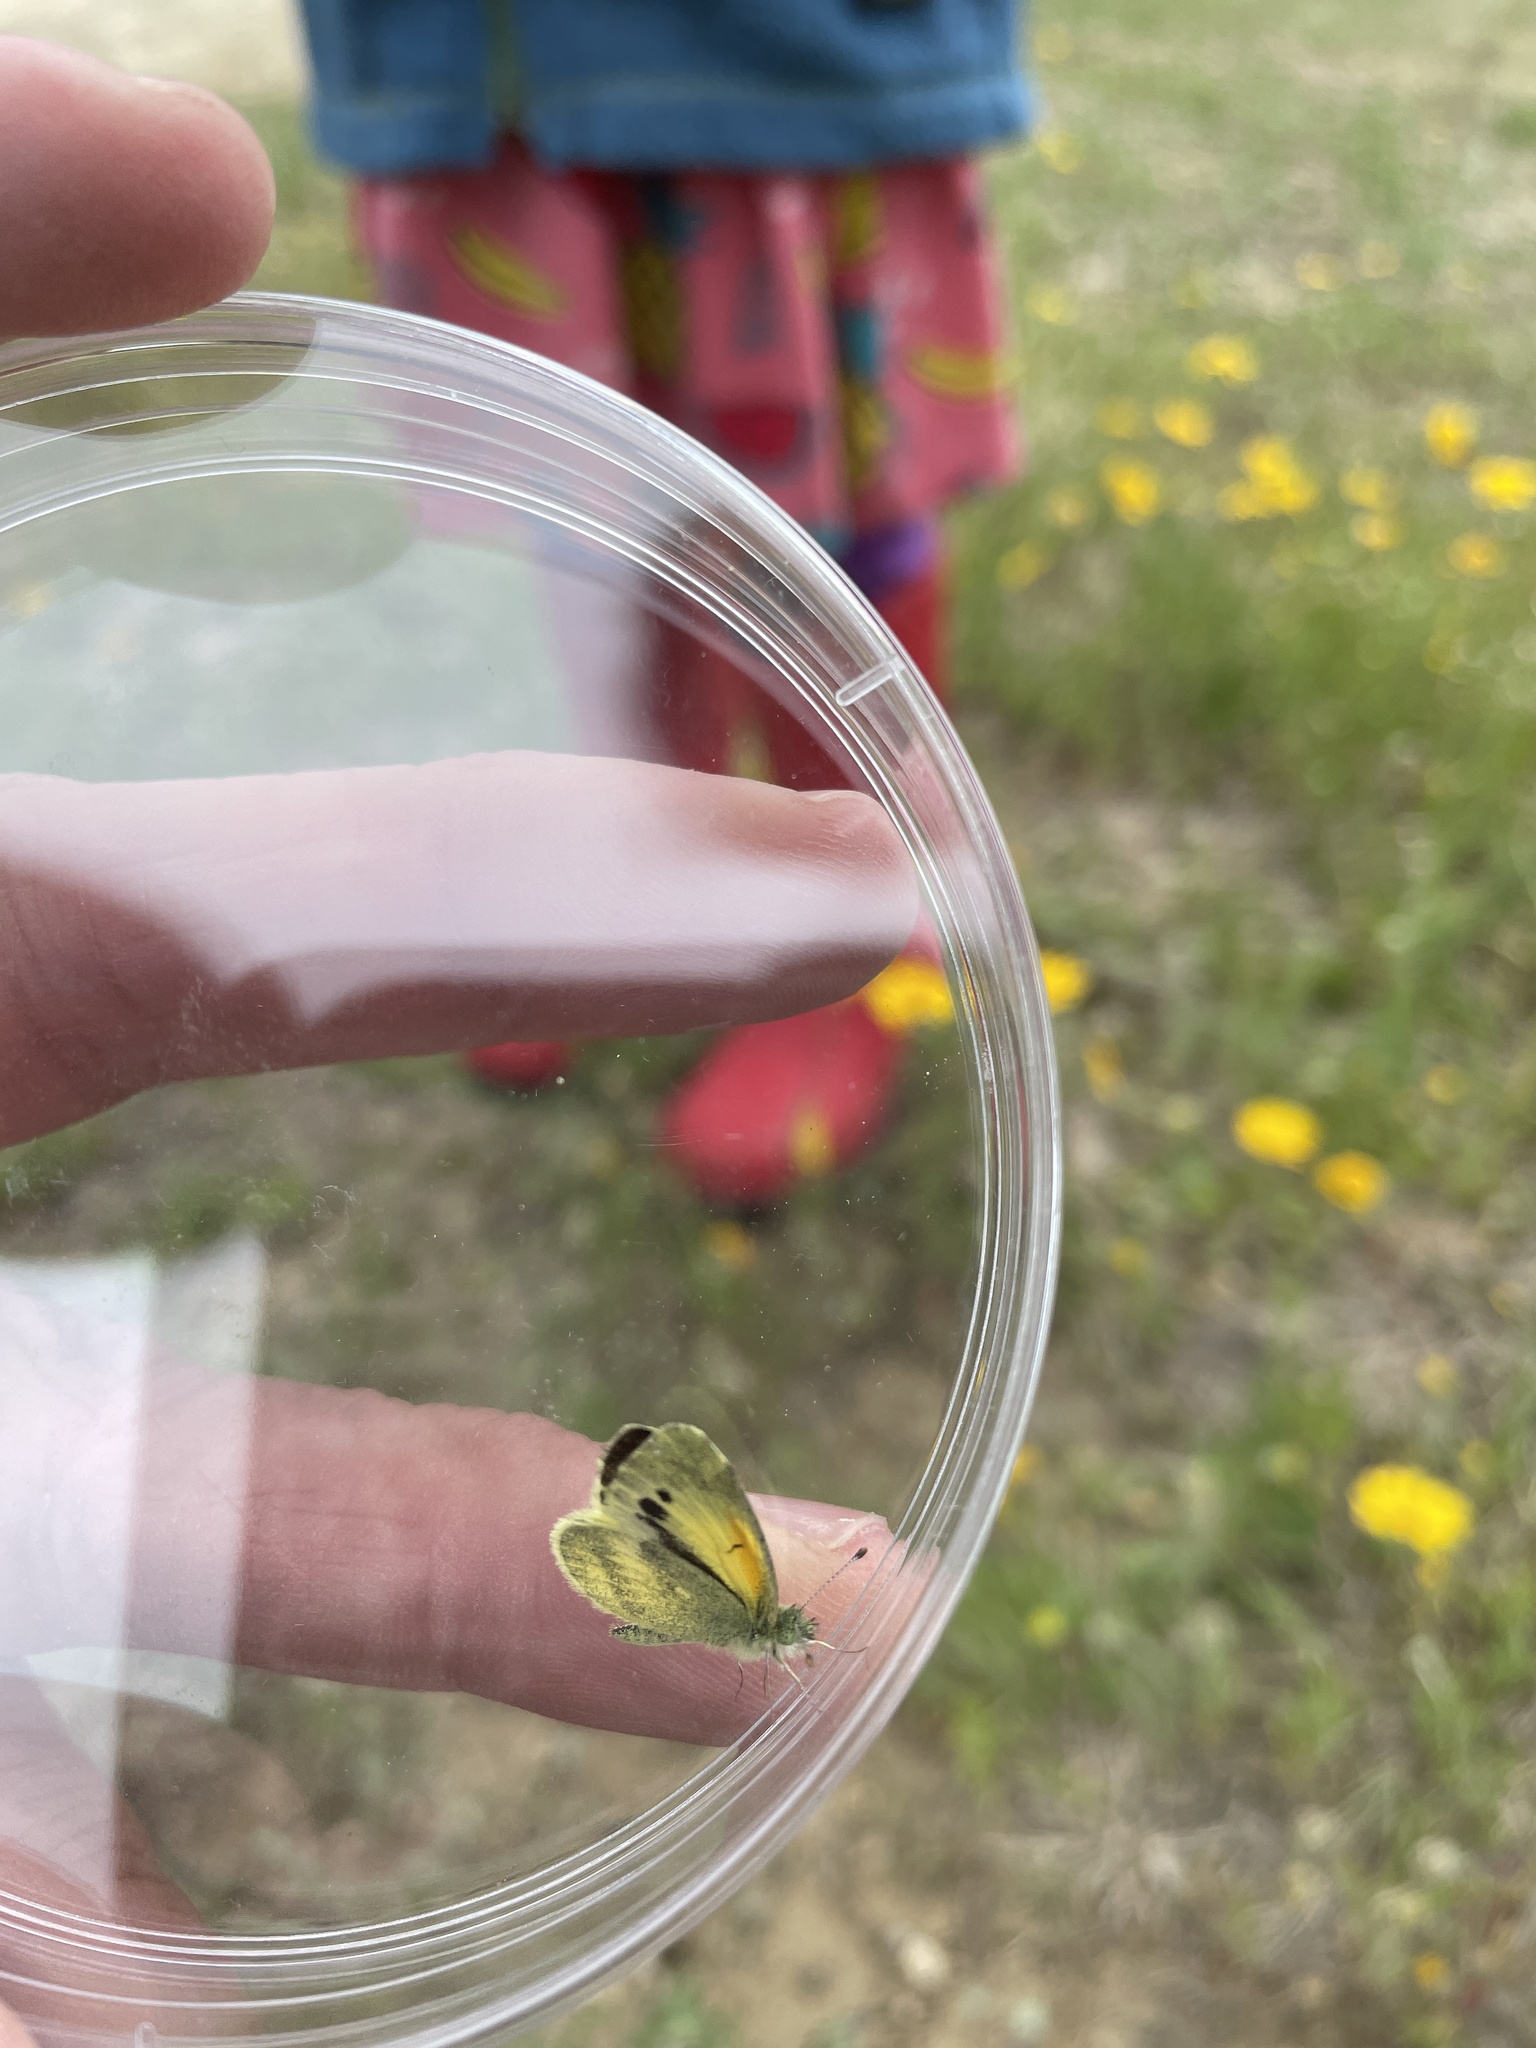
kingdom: Animalia
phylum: Arthropoda
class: Insecta
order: Lepidoptera
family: Pieridae
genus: Nathalis
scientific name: Nathalis iole
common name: Dainty sulphur
